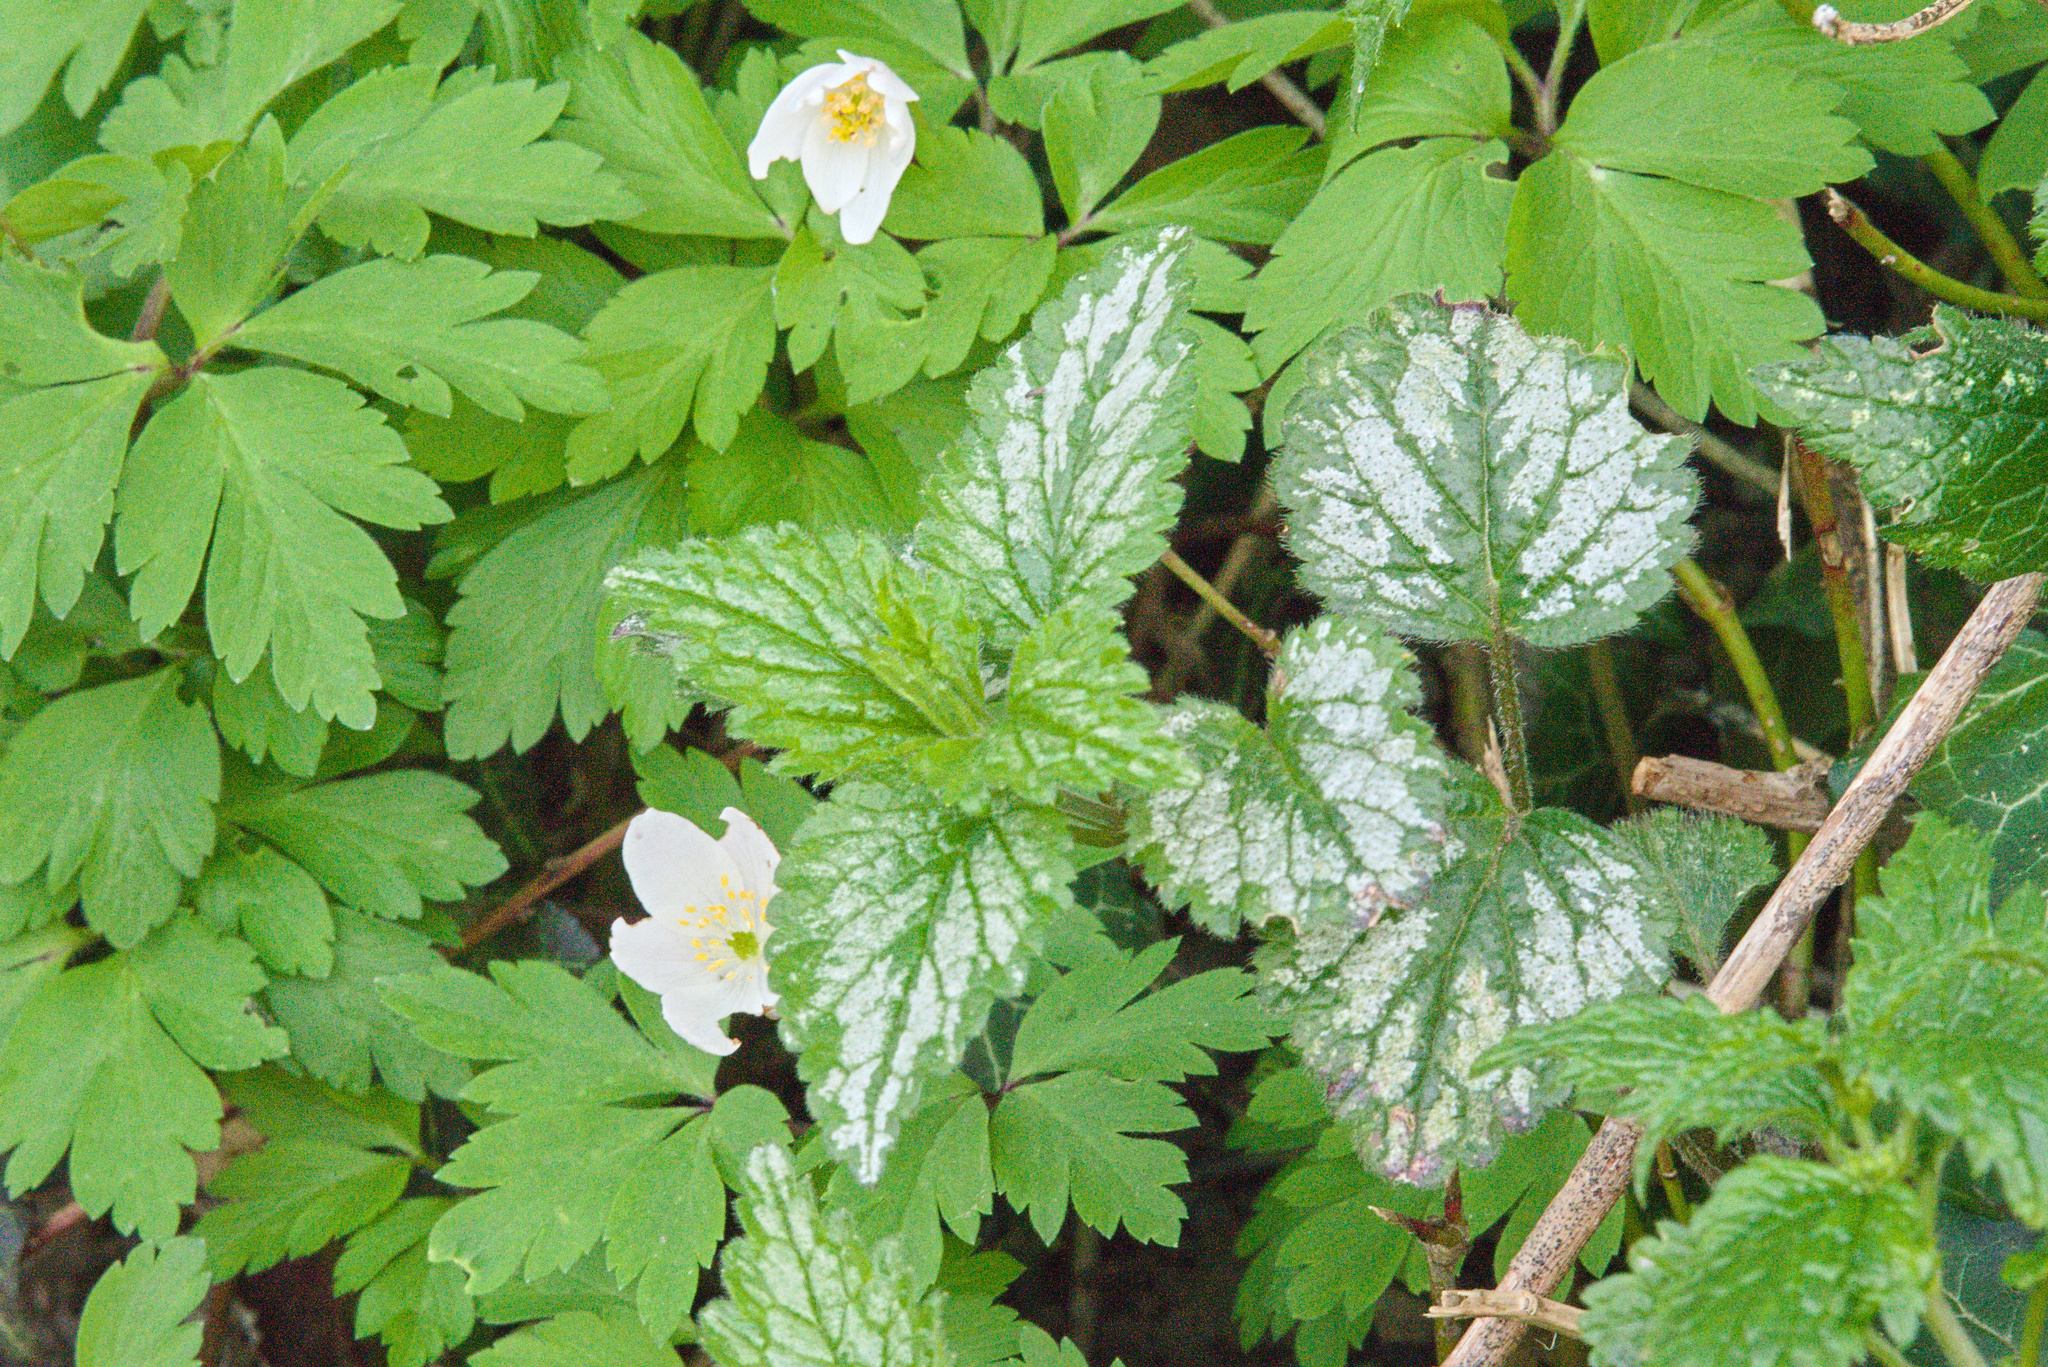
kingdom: Plantae
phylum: Tracheophyta
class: Magnoliopsida
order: Lamiales
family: Lamiaceae
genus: Lamium
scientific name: Lamium galeobdolon
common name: Yellow archangel
